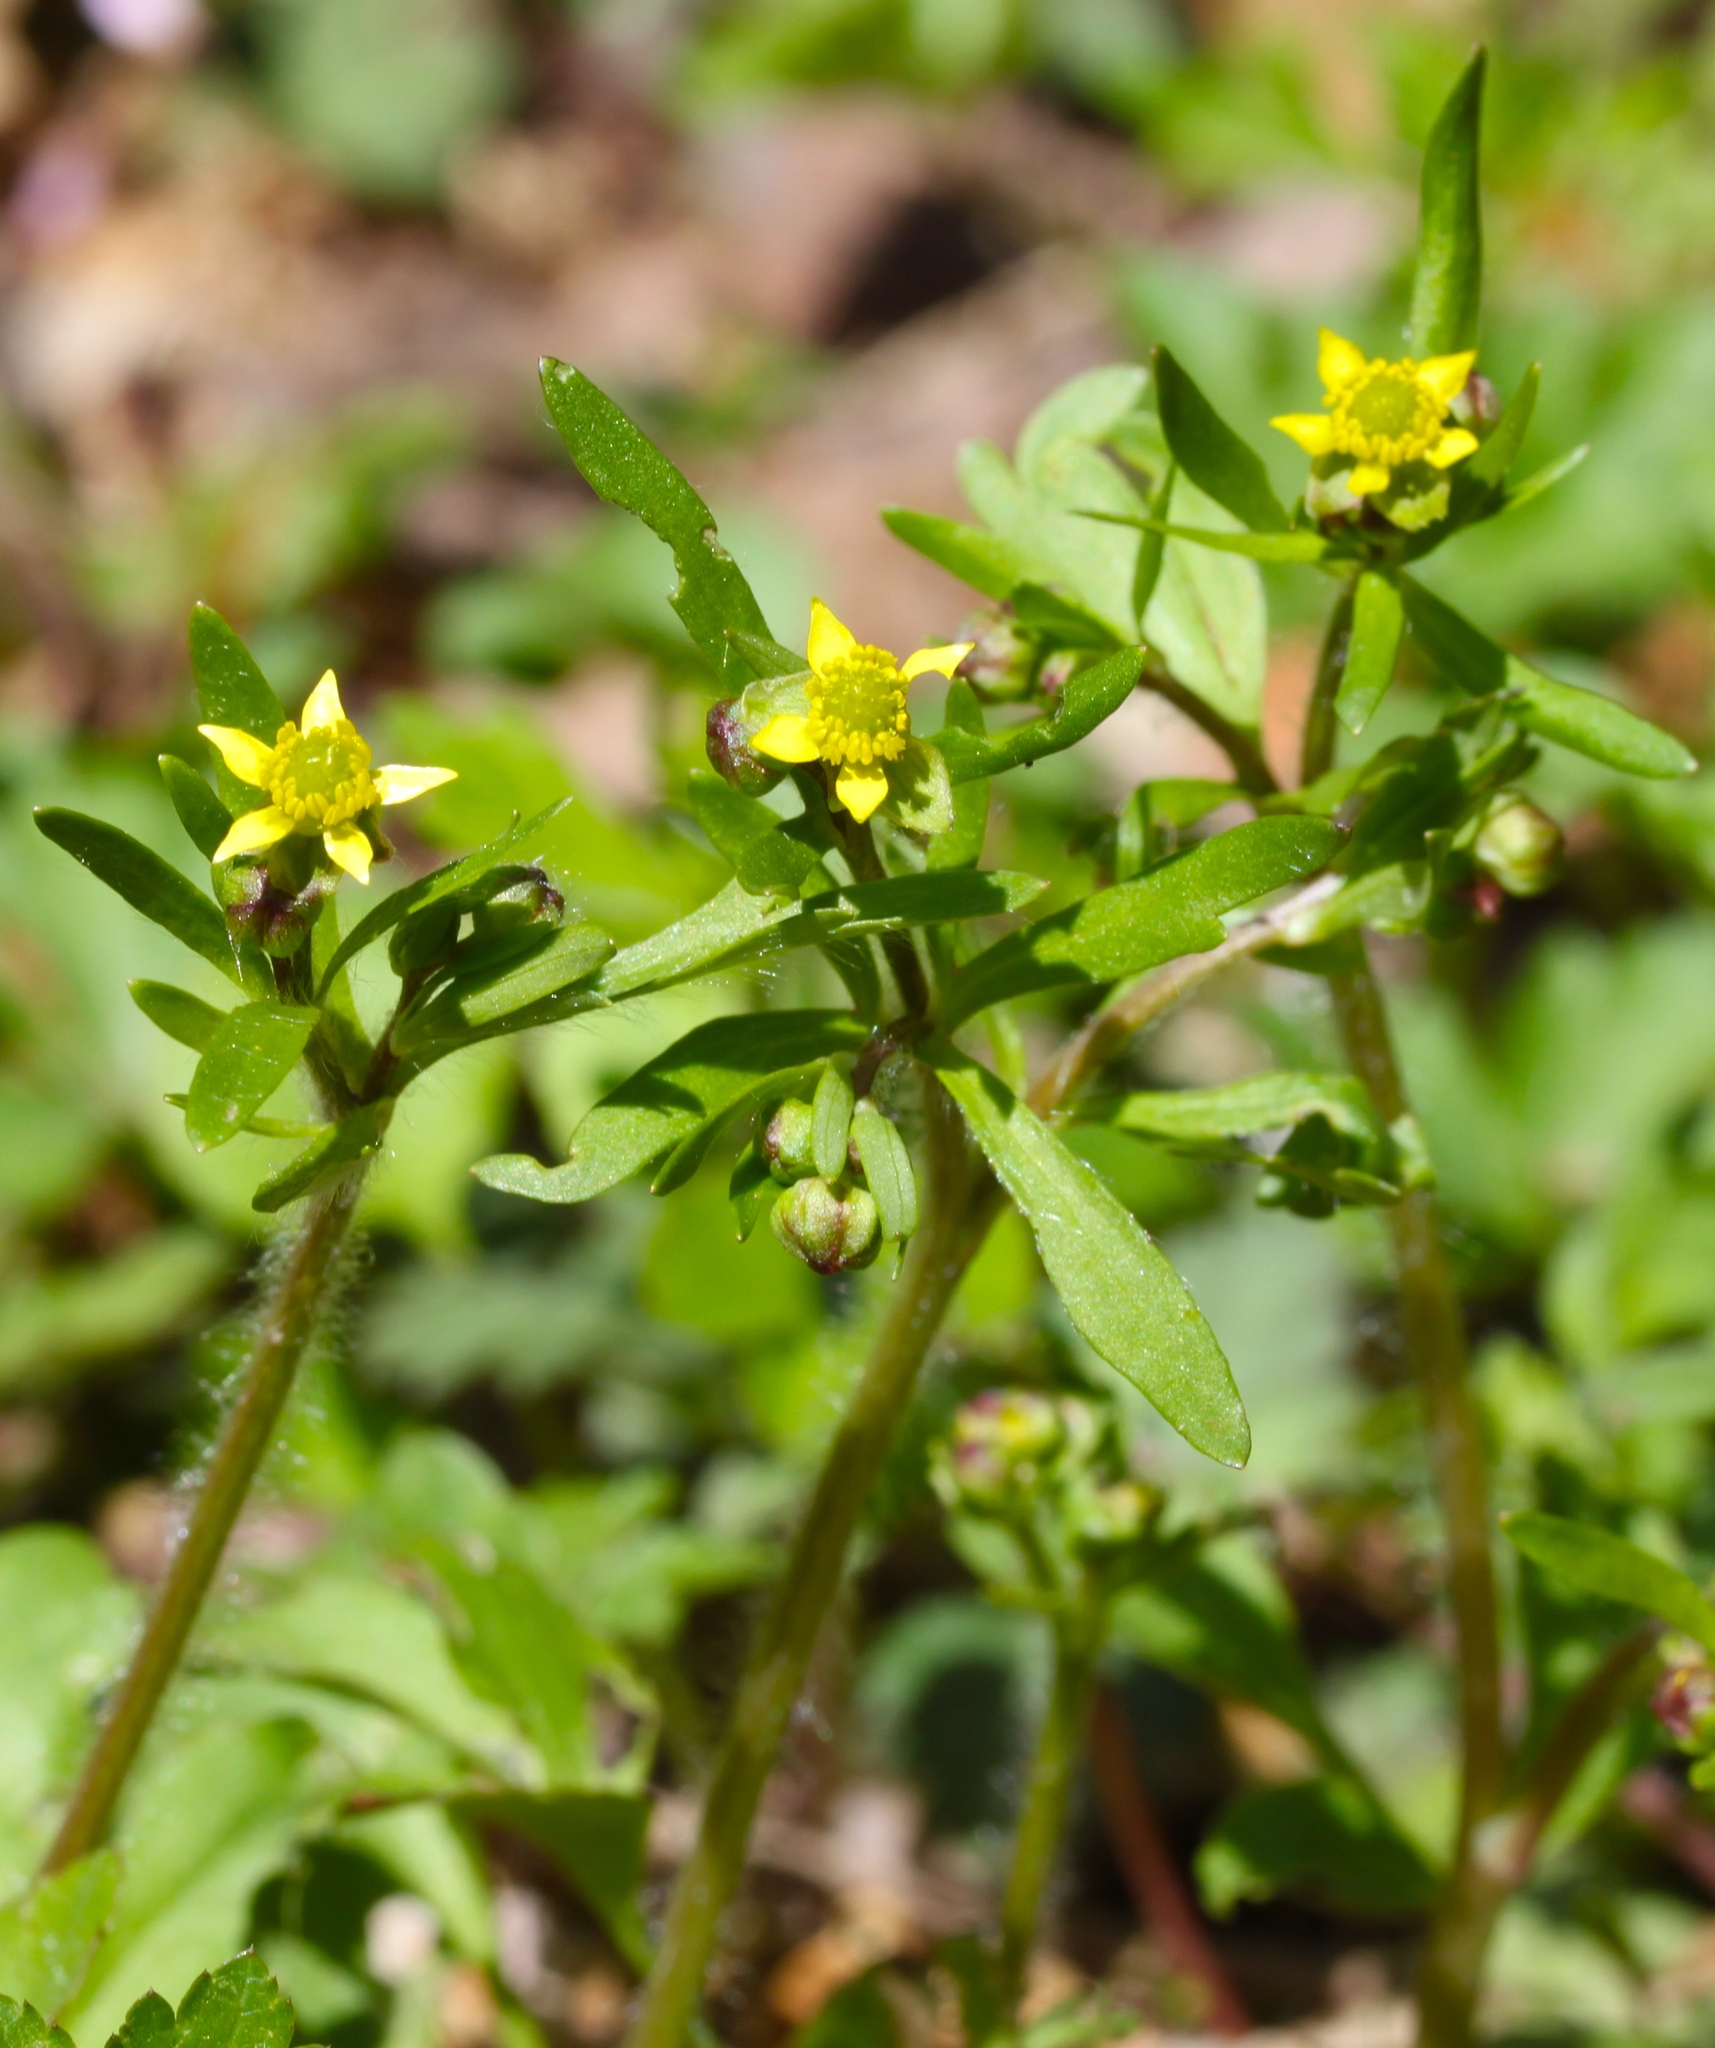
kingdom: Plantae
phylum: Tracheophyta
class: Magnoliopsida
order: Ranunculales
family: Ranunculaceae
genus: Ranunculus
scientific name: Ranunculus micranthus
